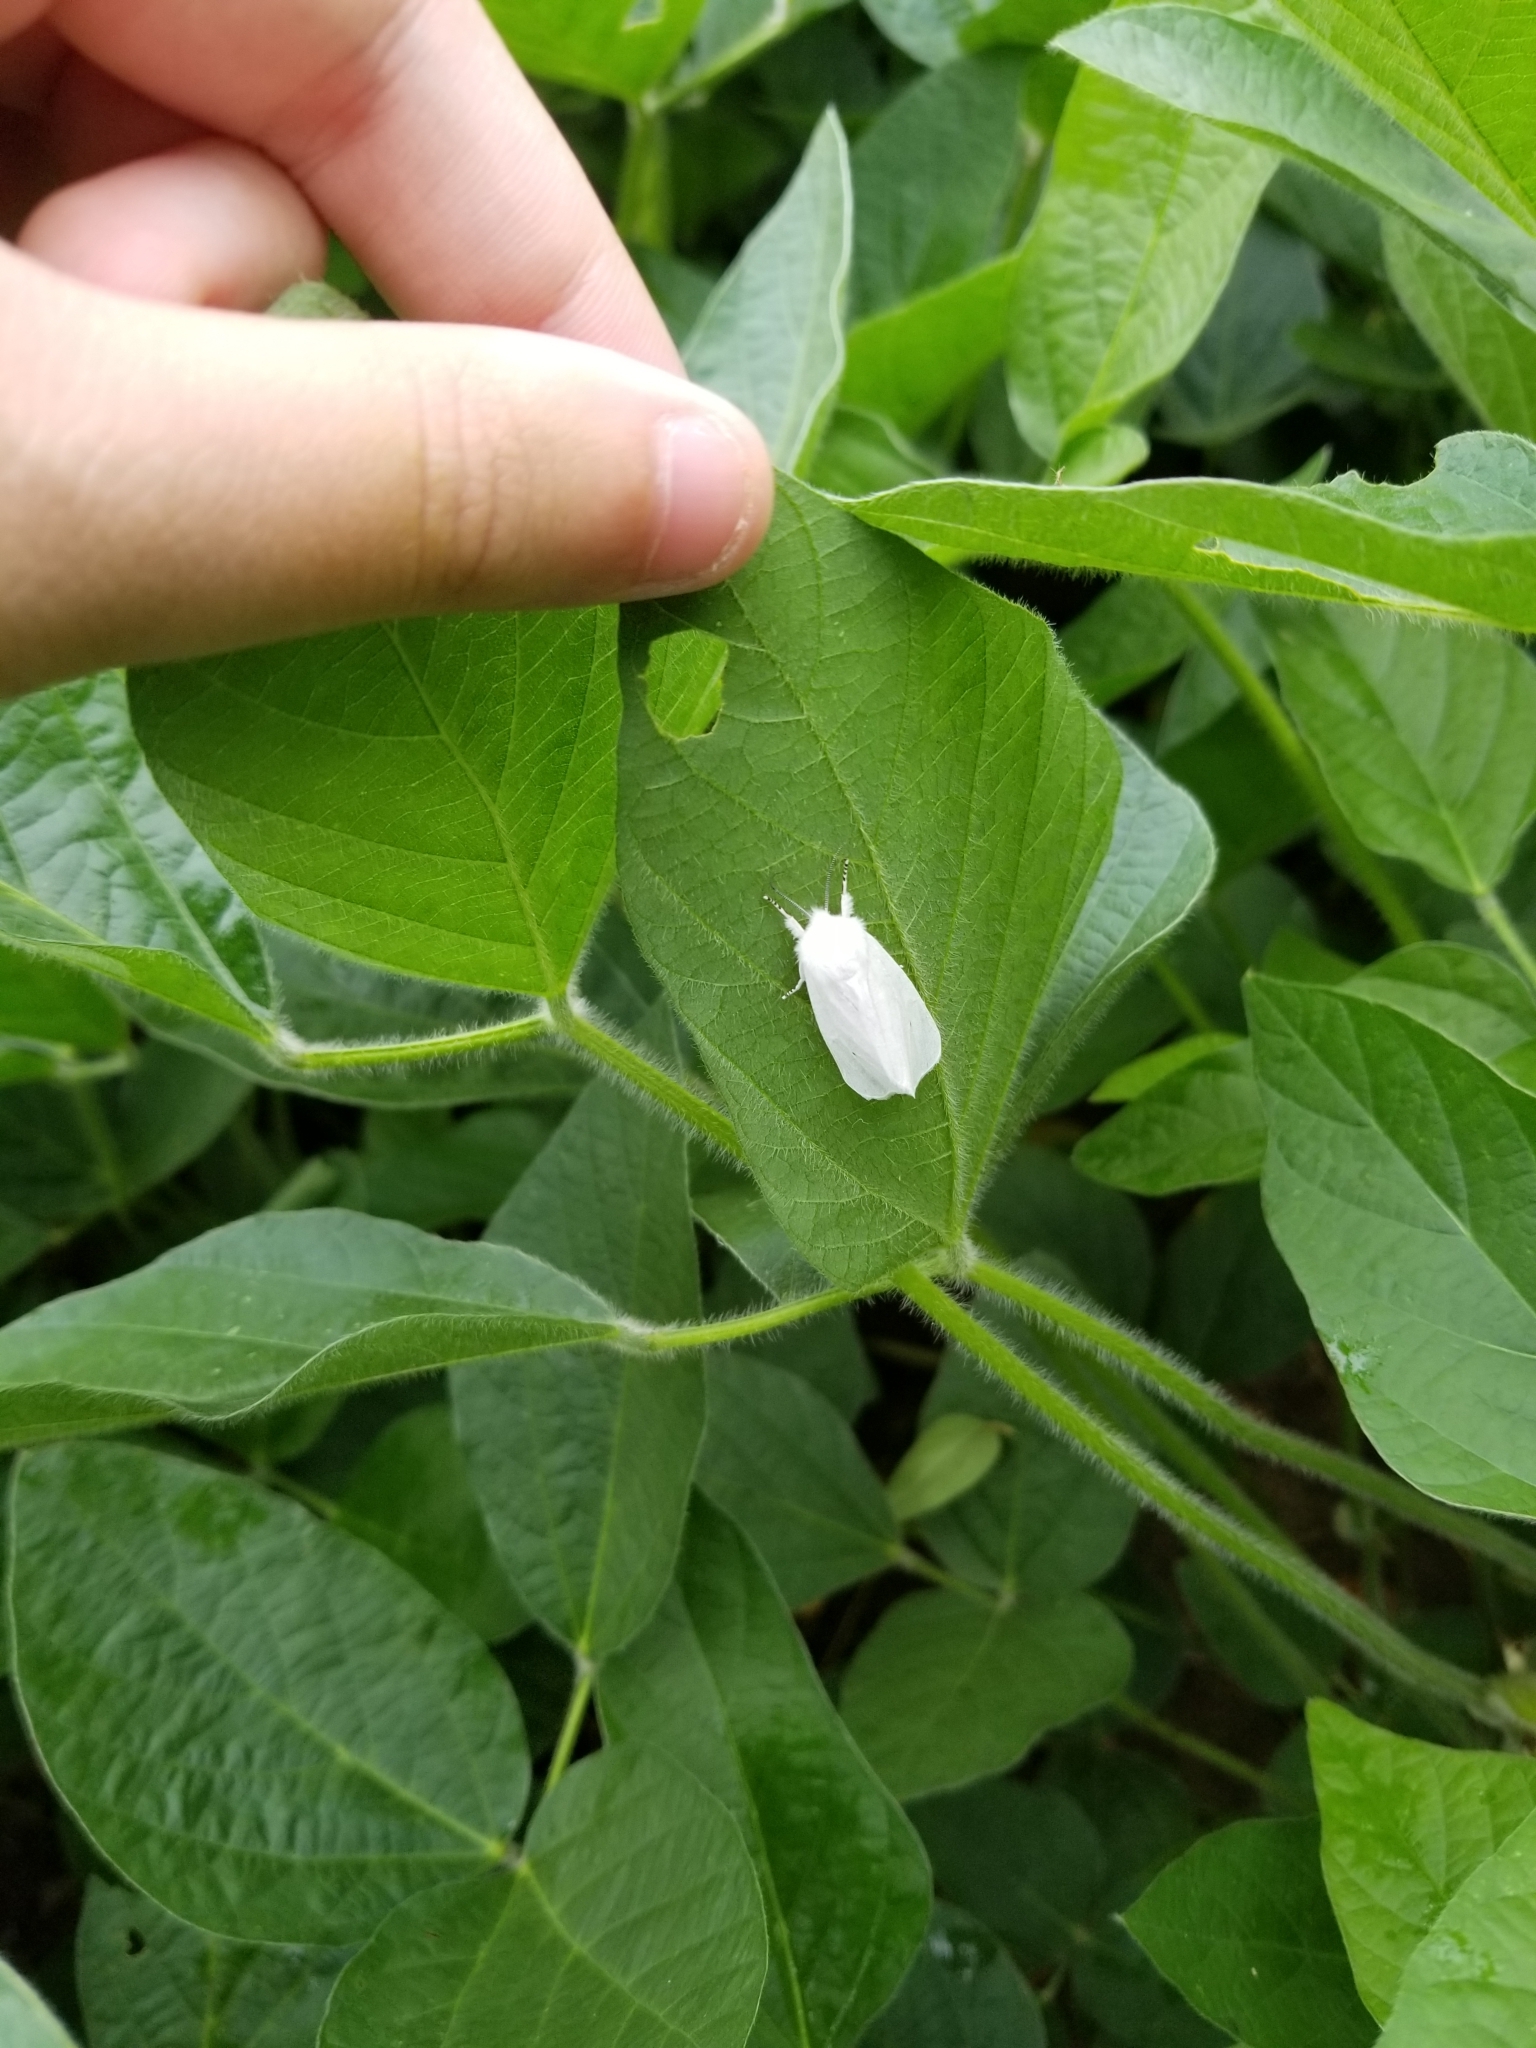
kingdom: Animalia
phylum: Arthropoda
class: Insecta
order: Lepidoptera
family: Erebidae
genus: Spilosoma
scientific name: Spilosoma virginica
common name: Virginia tiger moth
